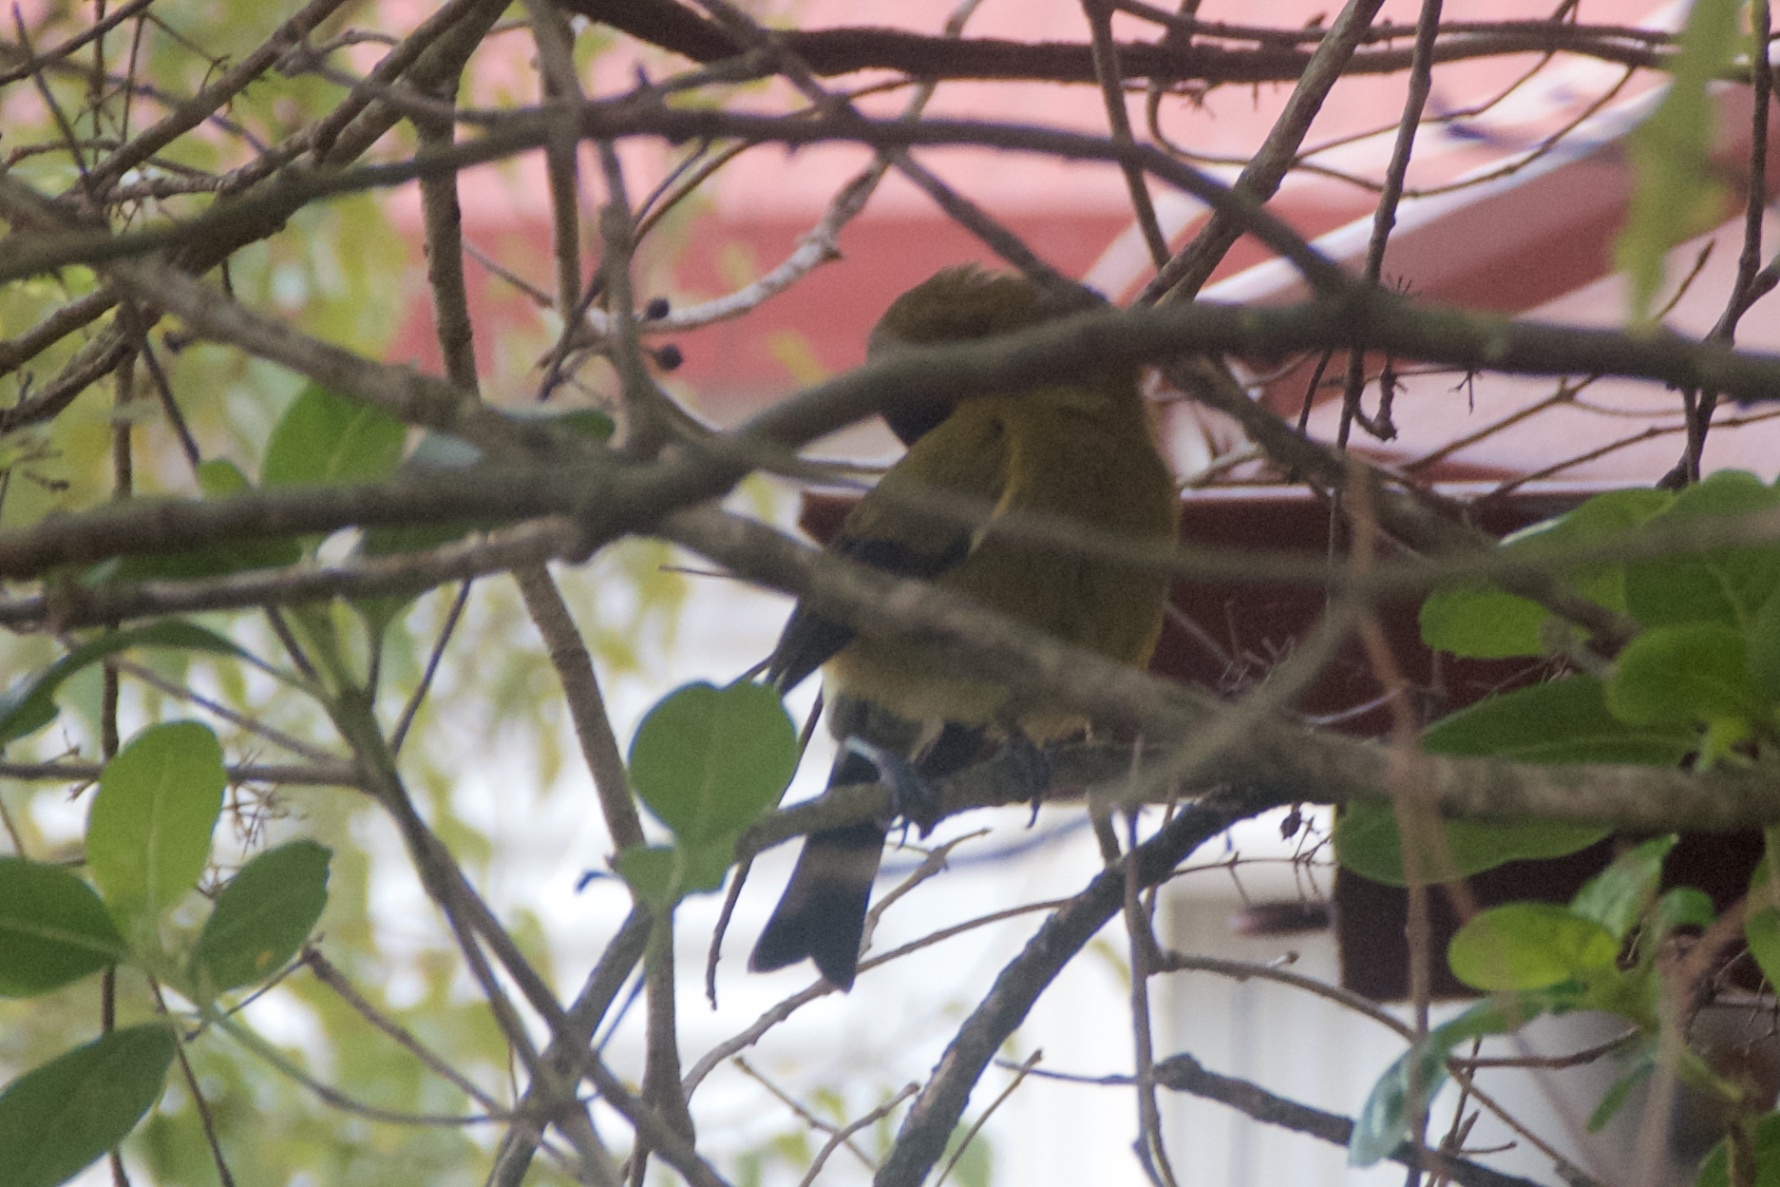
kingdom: Animalia
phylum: Chordata
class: Aves
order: Passeriformes
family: Meliphagidae
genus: Anthornis
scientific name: Anthornis melanura
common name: New zealand bellbird
